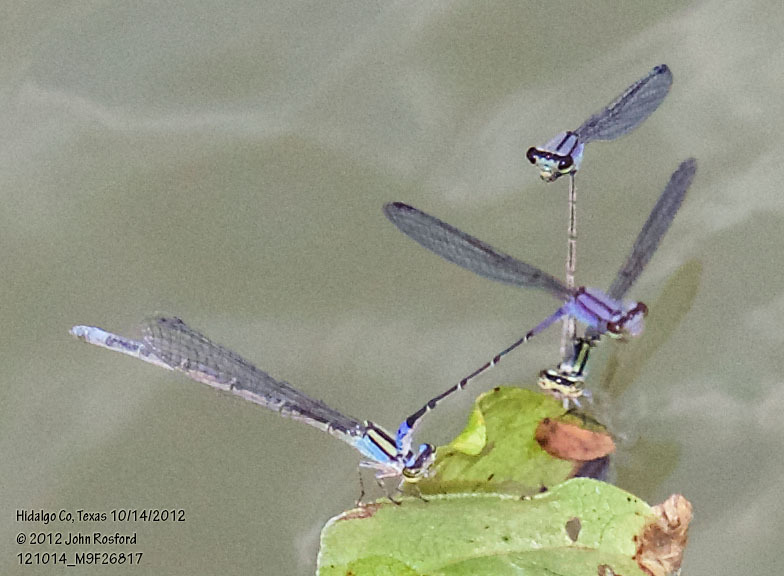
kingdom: Animalia
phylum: Arthropoda
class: Insecta
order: Odonata
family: Coenagrionidae
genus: Enallagma
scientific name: Enallagma novaehispaniae
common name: Neotropical bluet
